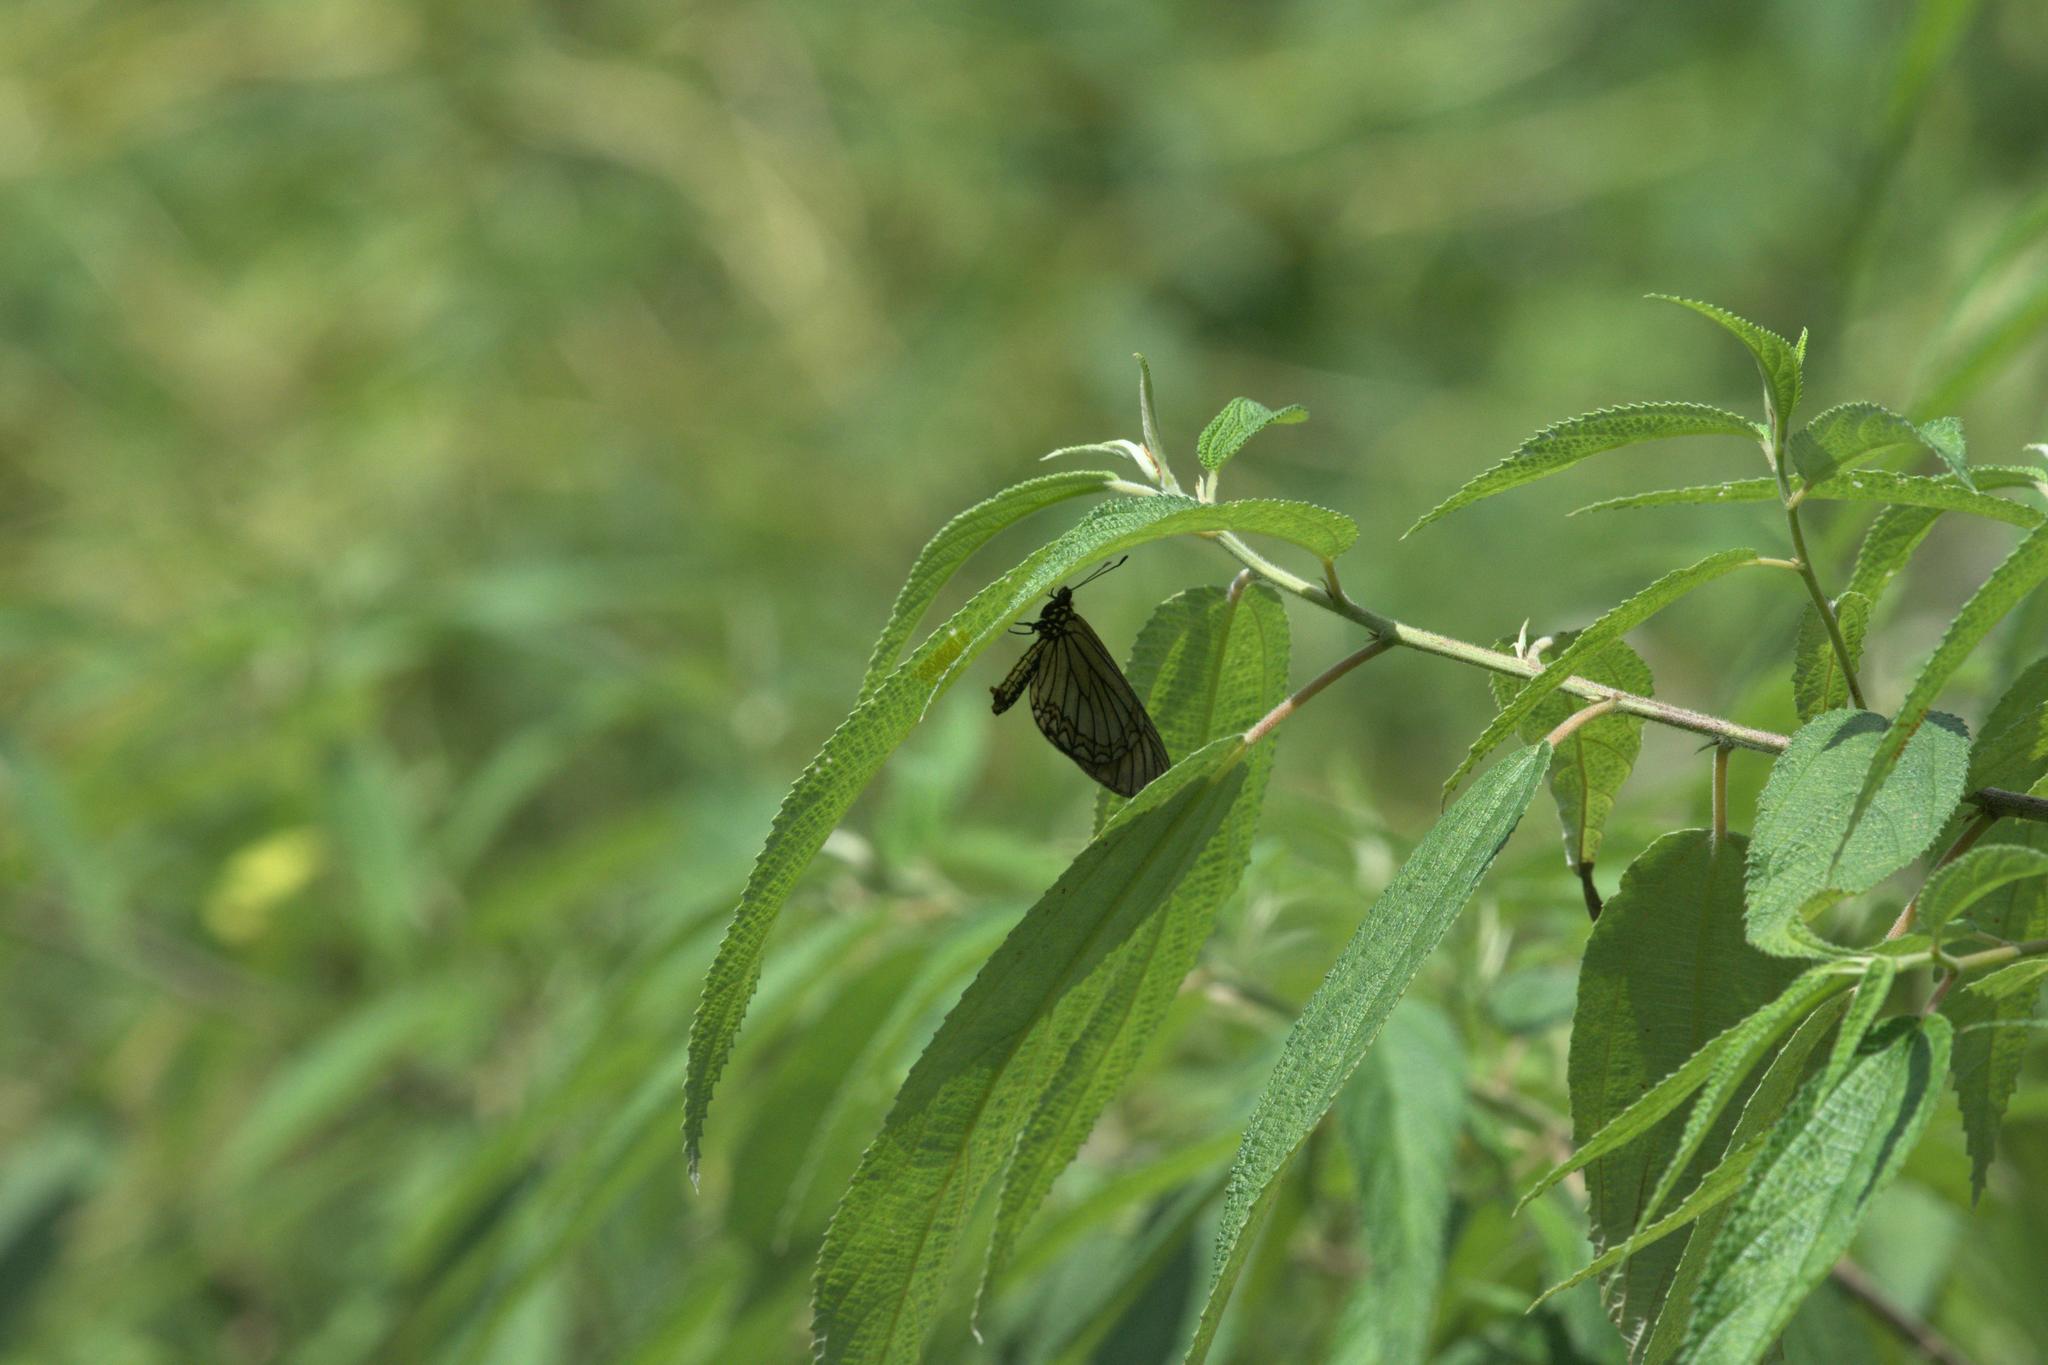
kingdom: Animalia
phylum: Arthropoda
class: Insecta
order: Lepidoptera
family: Nymphalidae
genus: Acraea
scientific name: Acraea Telchinia issoria
